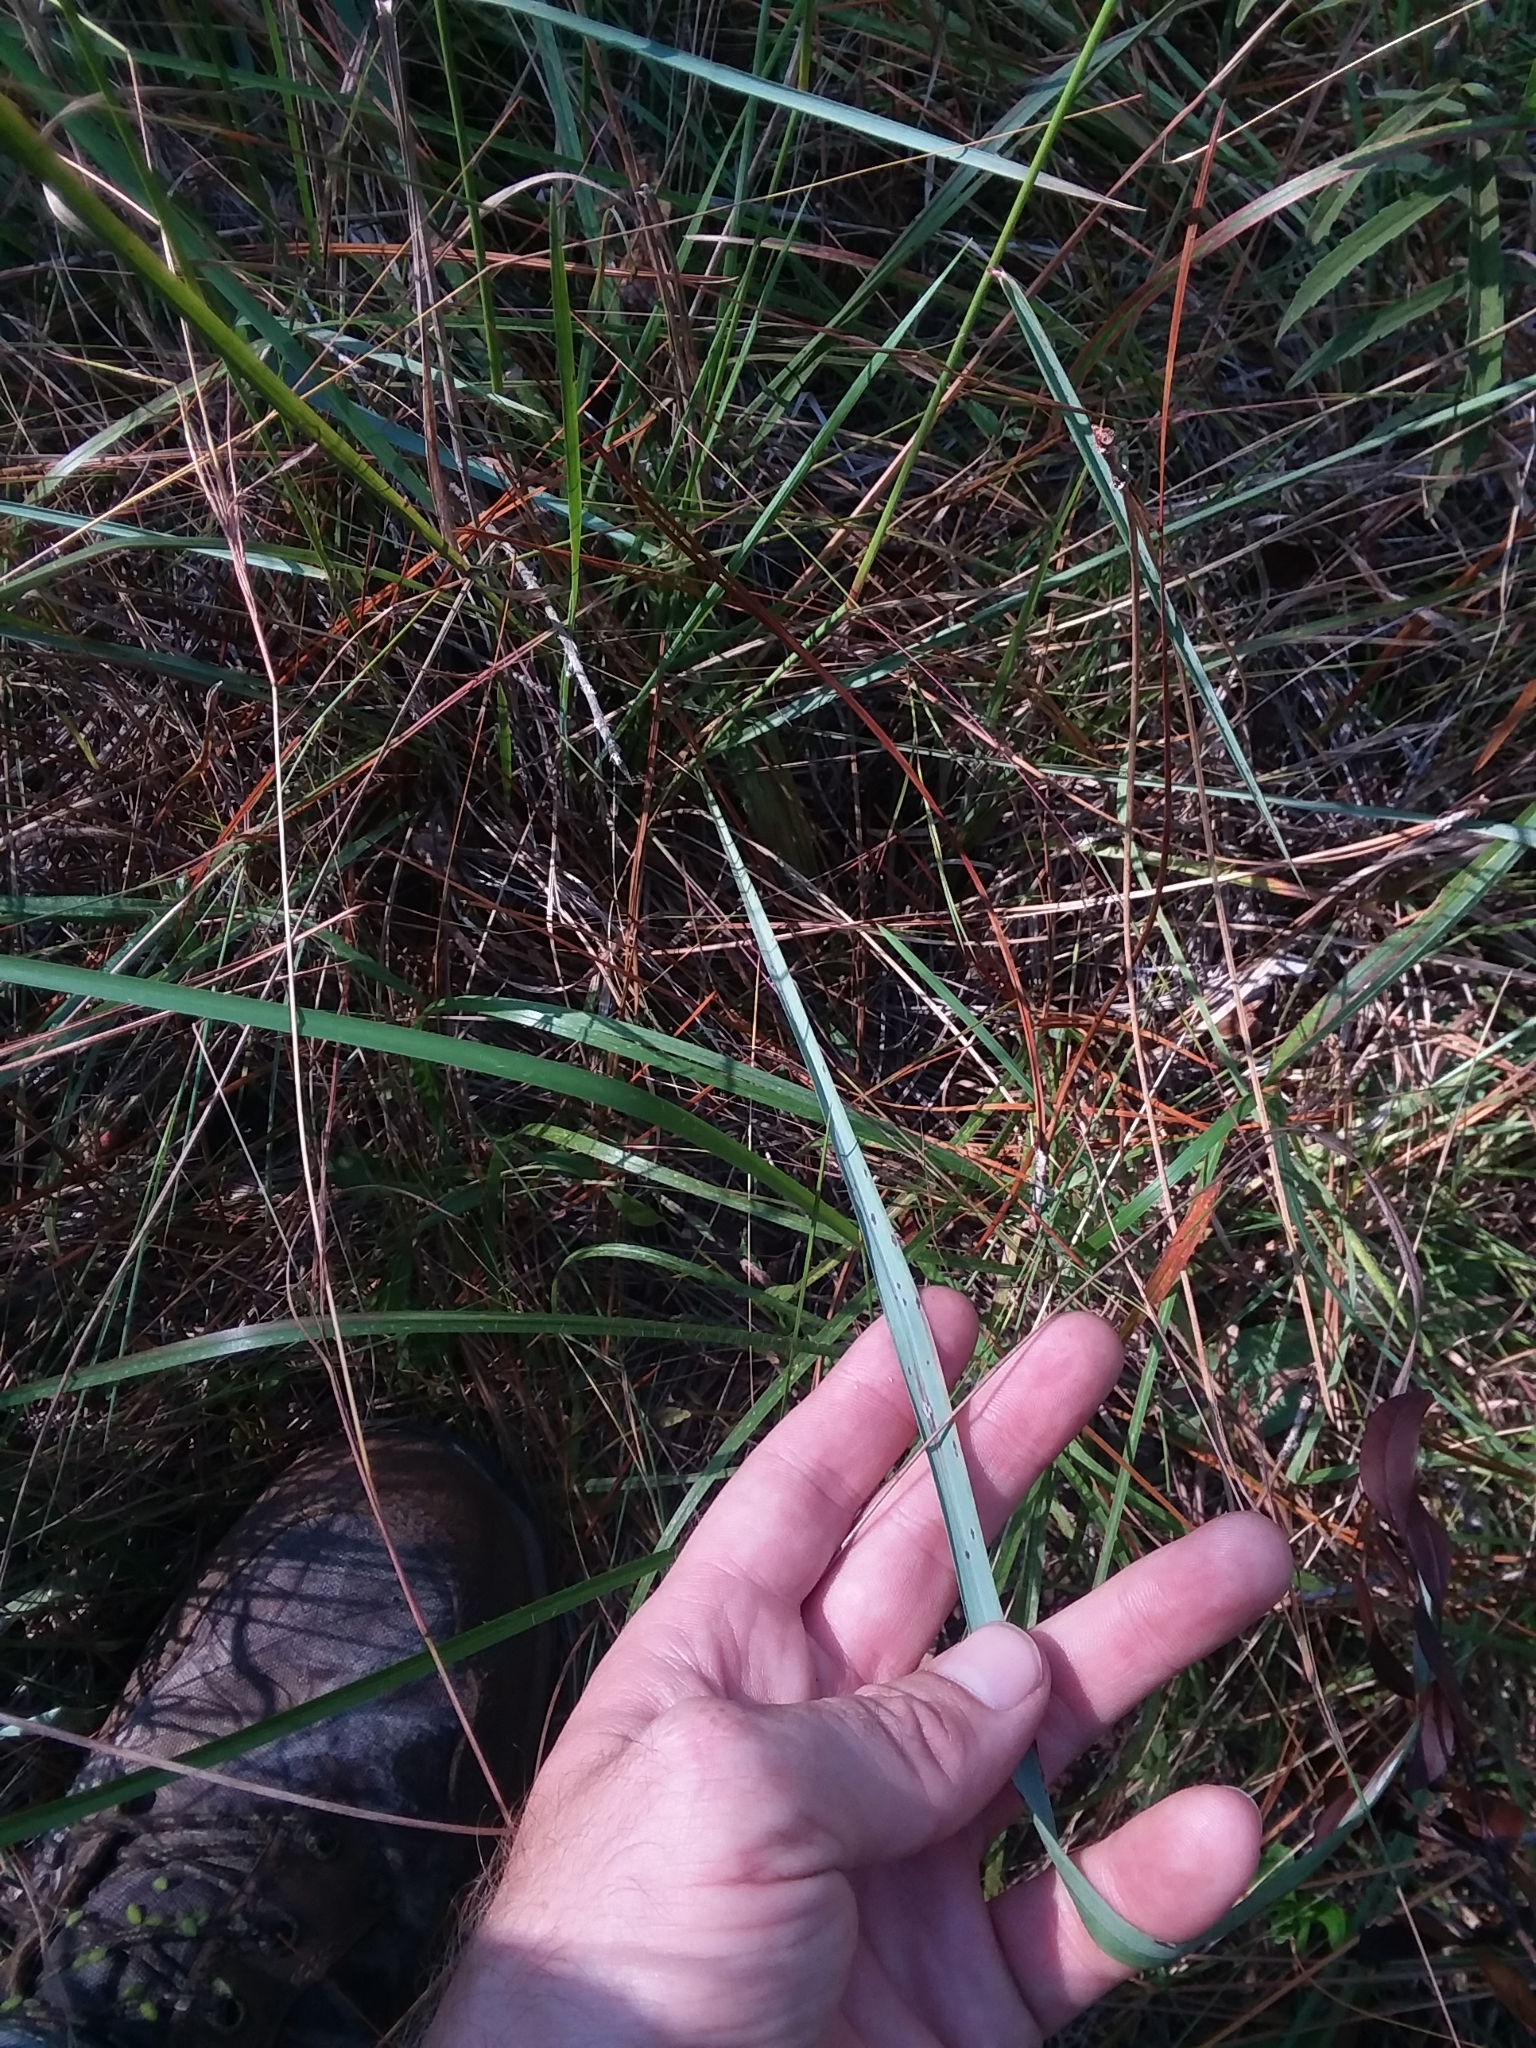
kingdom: Plantae
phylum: Tracheophyta
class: Liliopsida
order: Poales
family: Poaceae
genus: Tridens
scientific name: Tridens ambiguus
